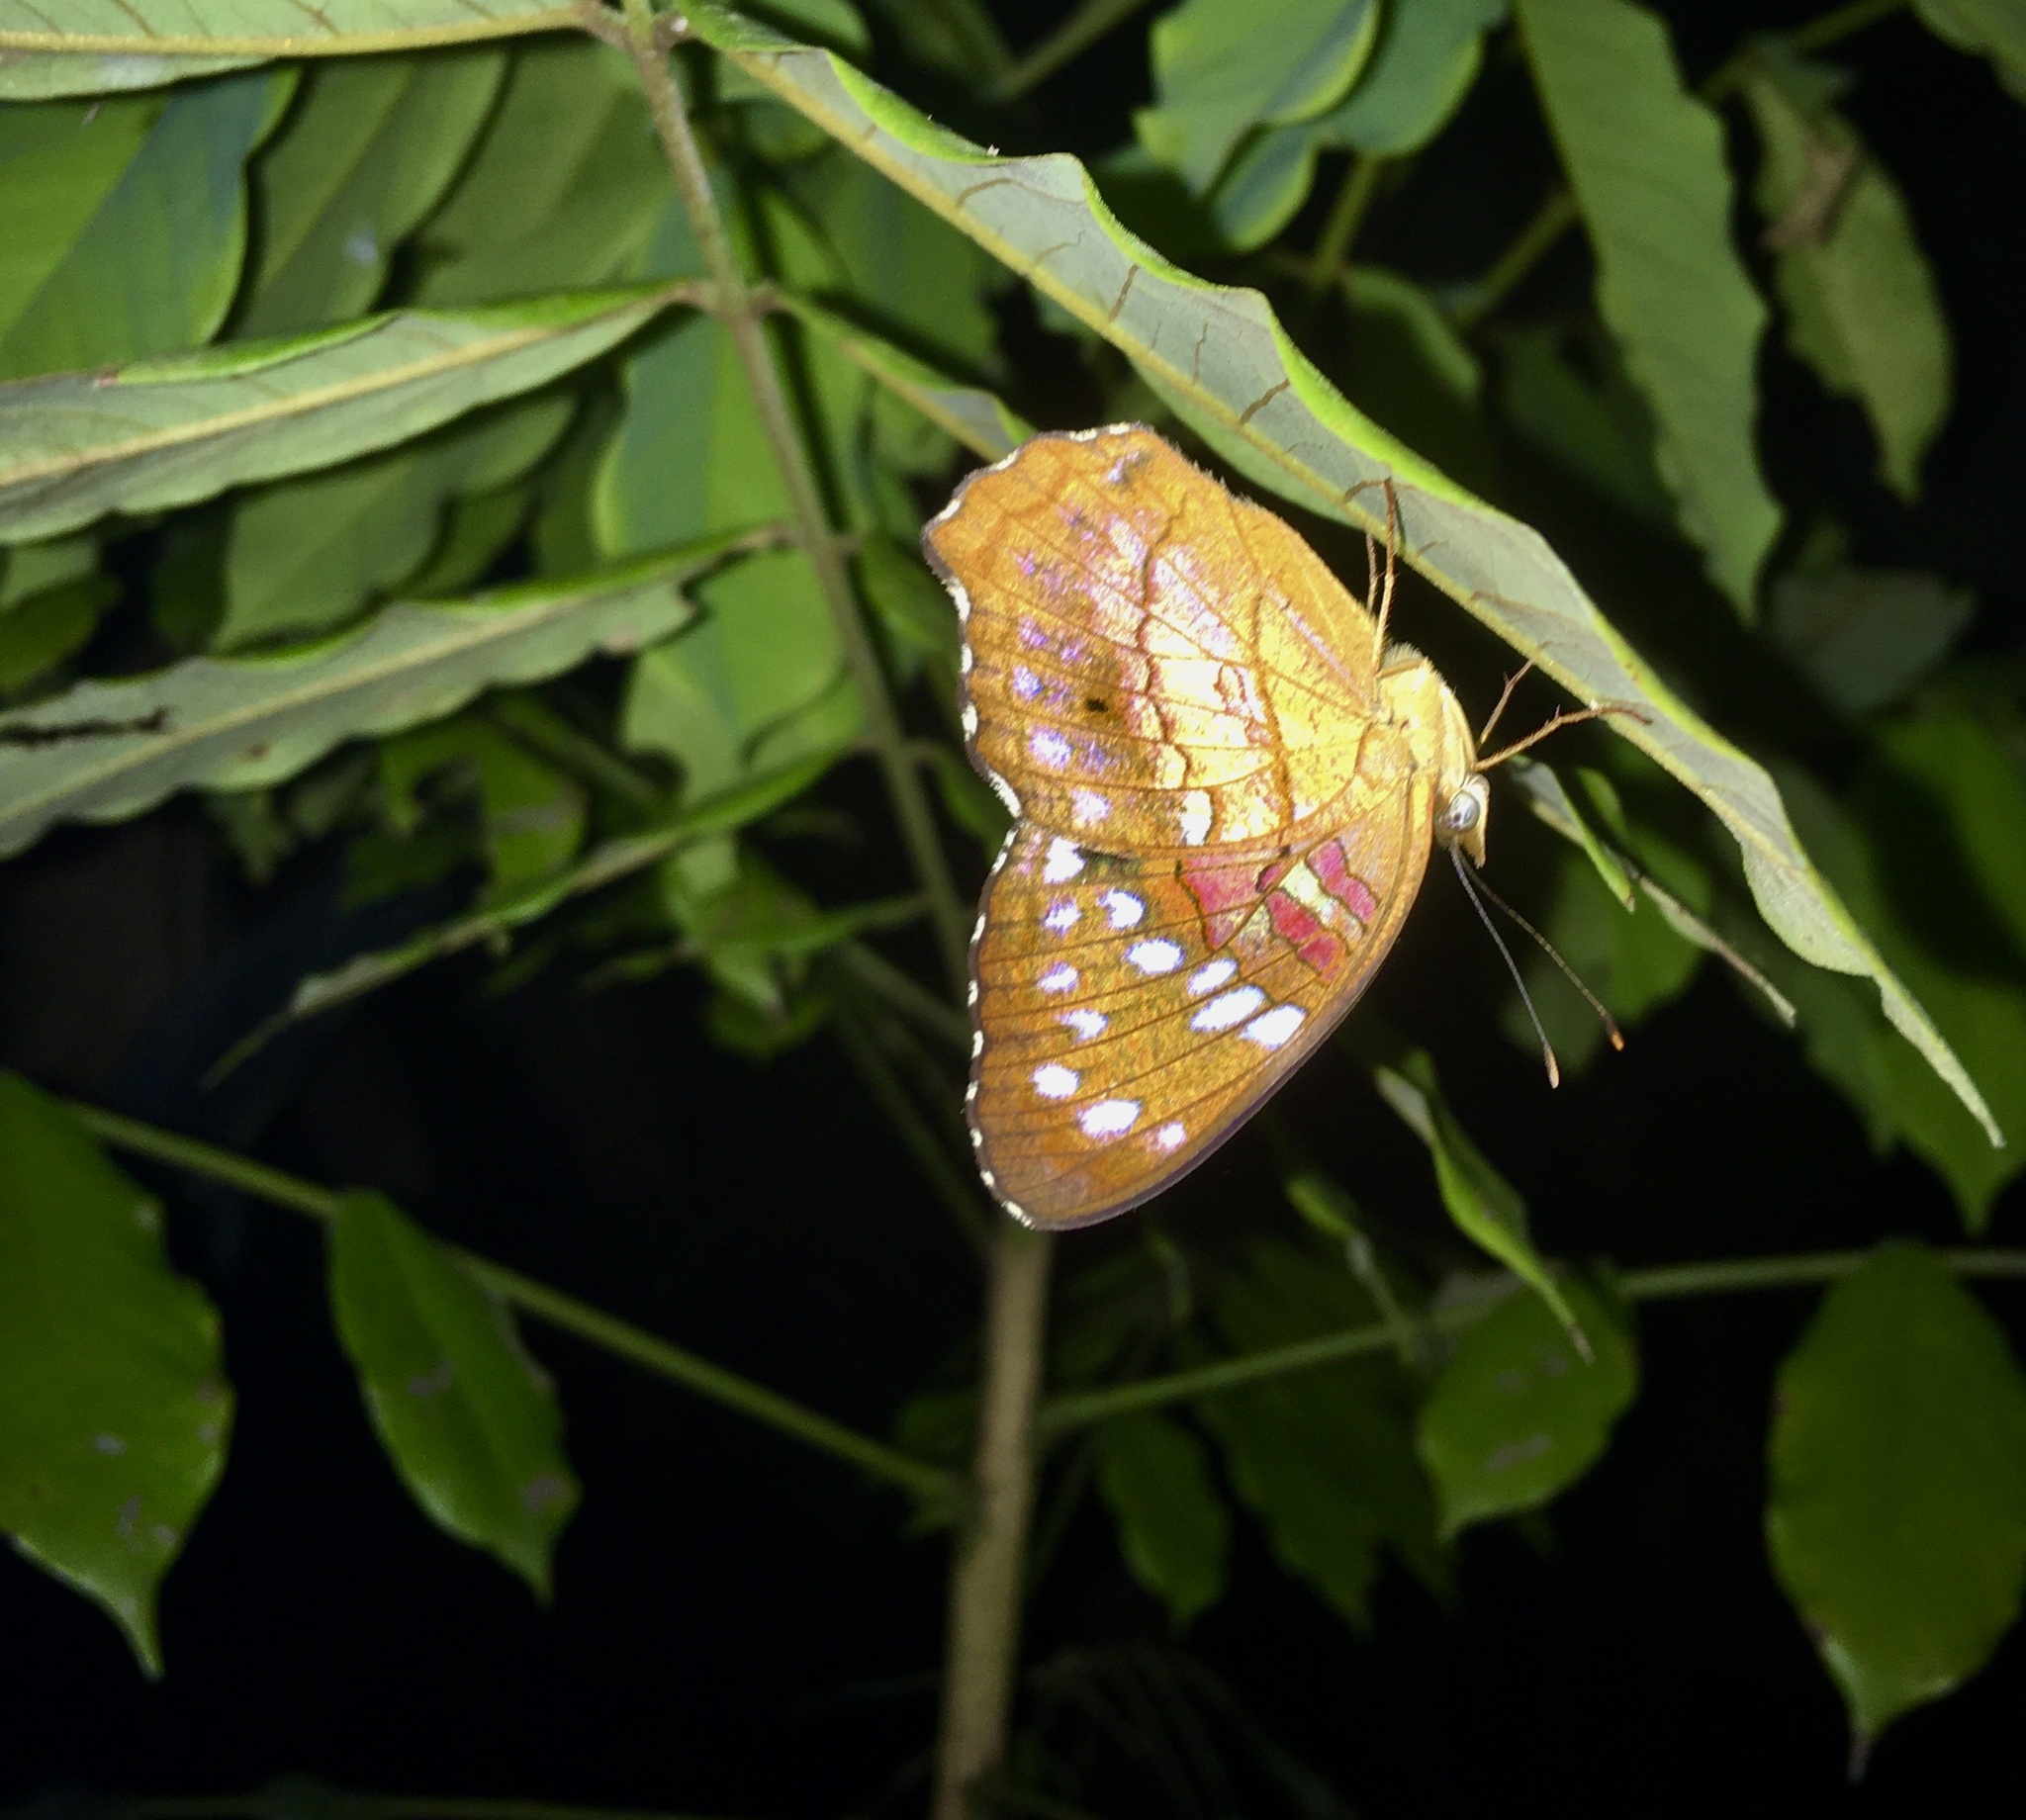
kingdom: Animalia
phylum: Arthropoda
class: Insecta
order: Lepidoptera
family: Nymphalidae
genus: Anartia
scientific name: Anartia amathea
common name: Red peacock
